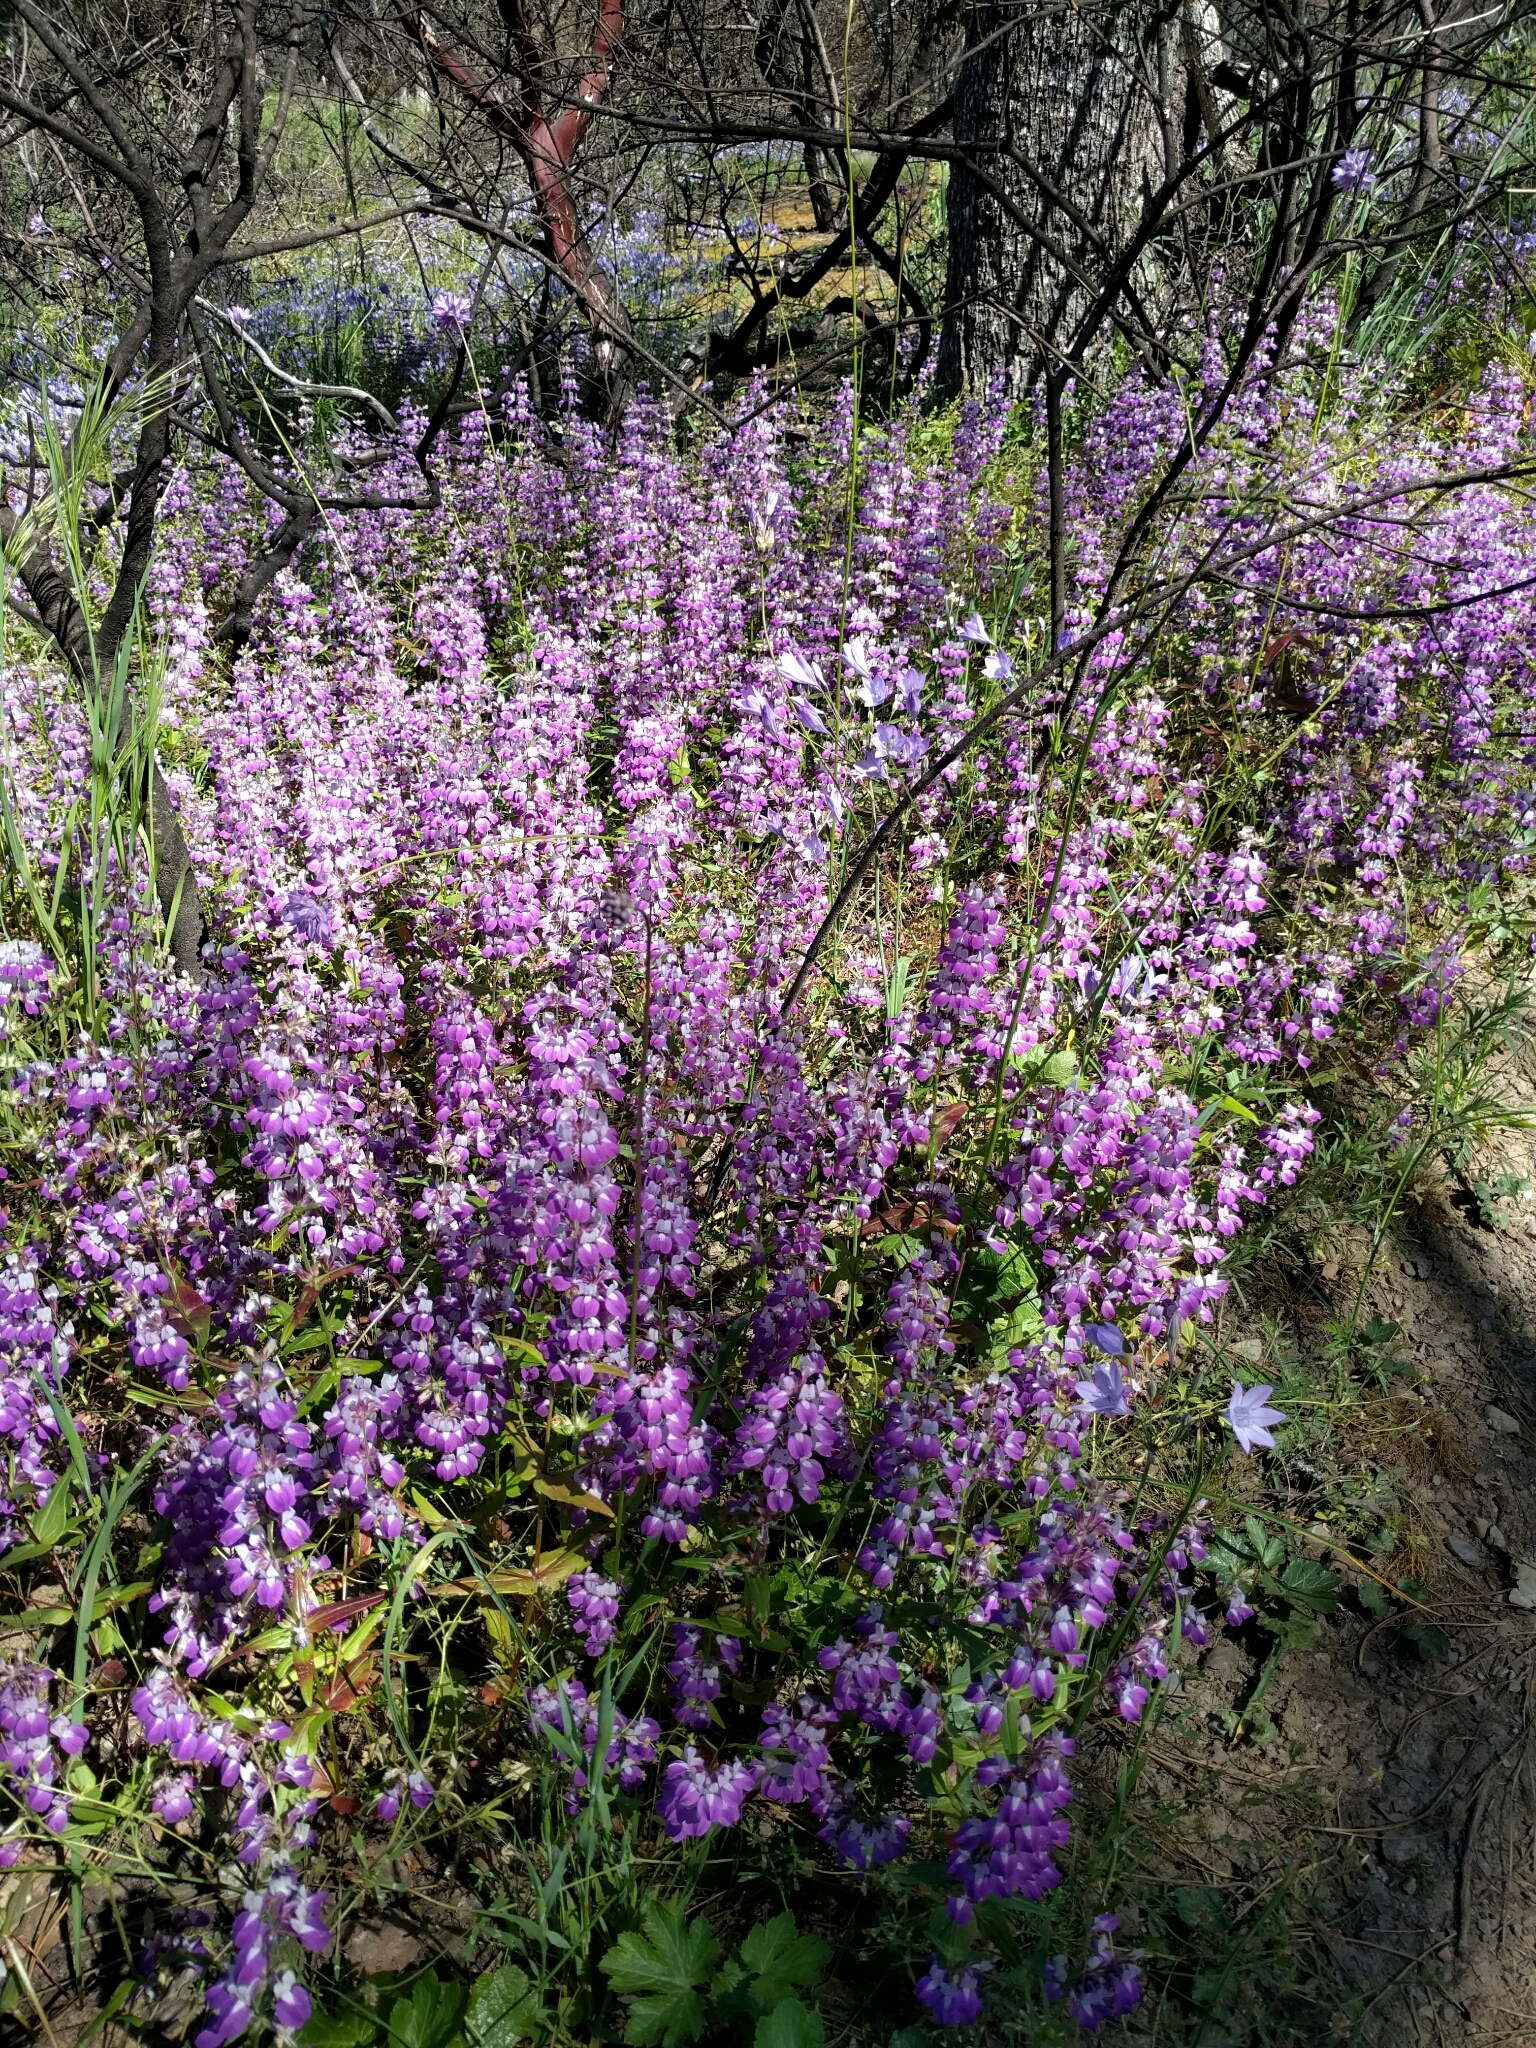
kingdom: Plantae
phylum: Tracheophyta
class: Magnoliopsida
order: Lamiales
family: Plantaginaceae
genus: Collinsia
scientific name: Collinsia heterophylla
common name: Chinese-houses
